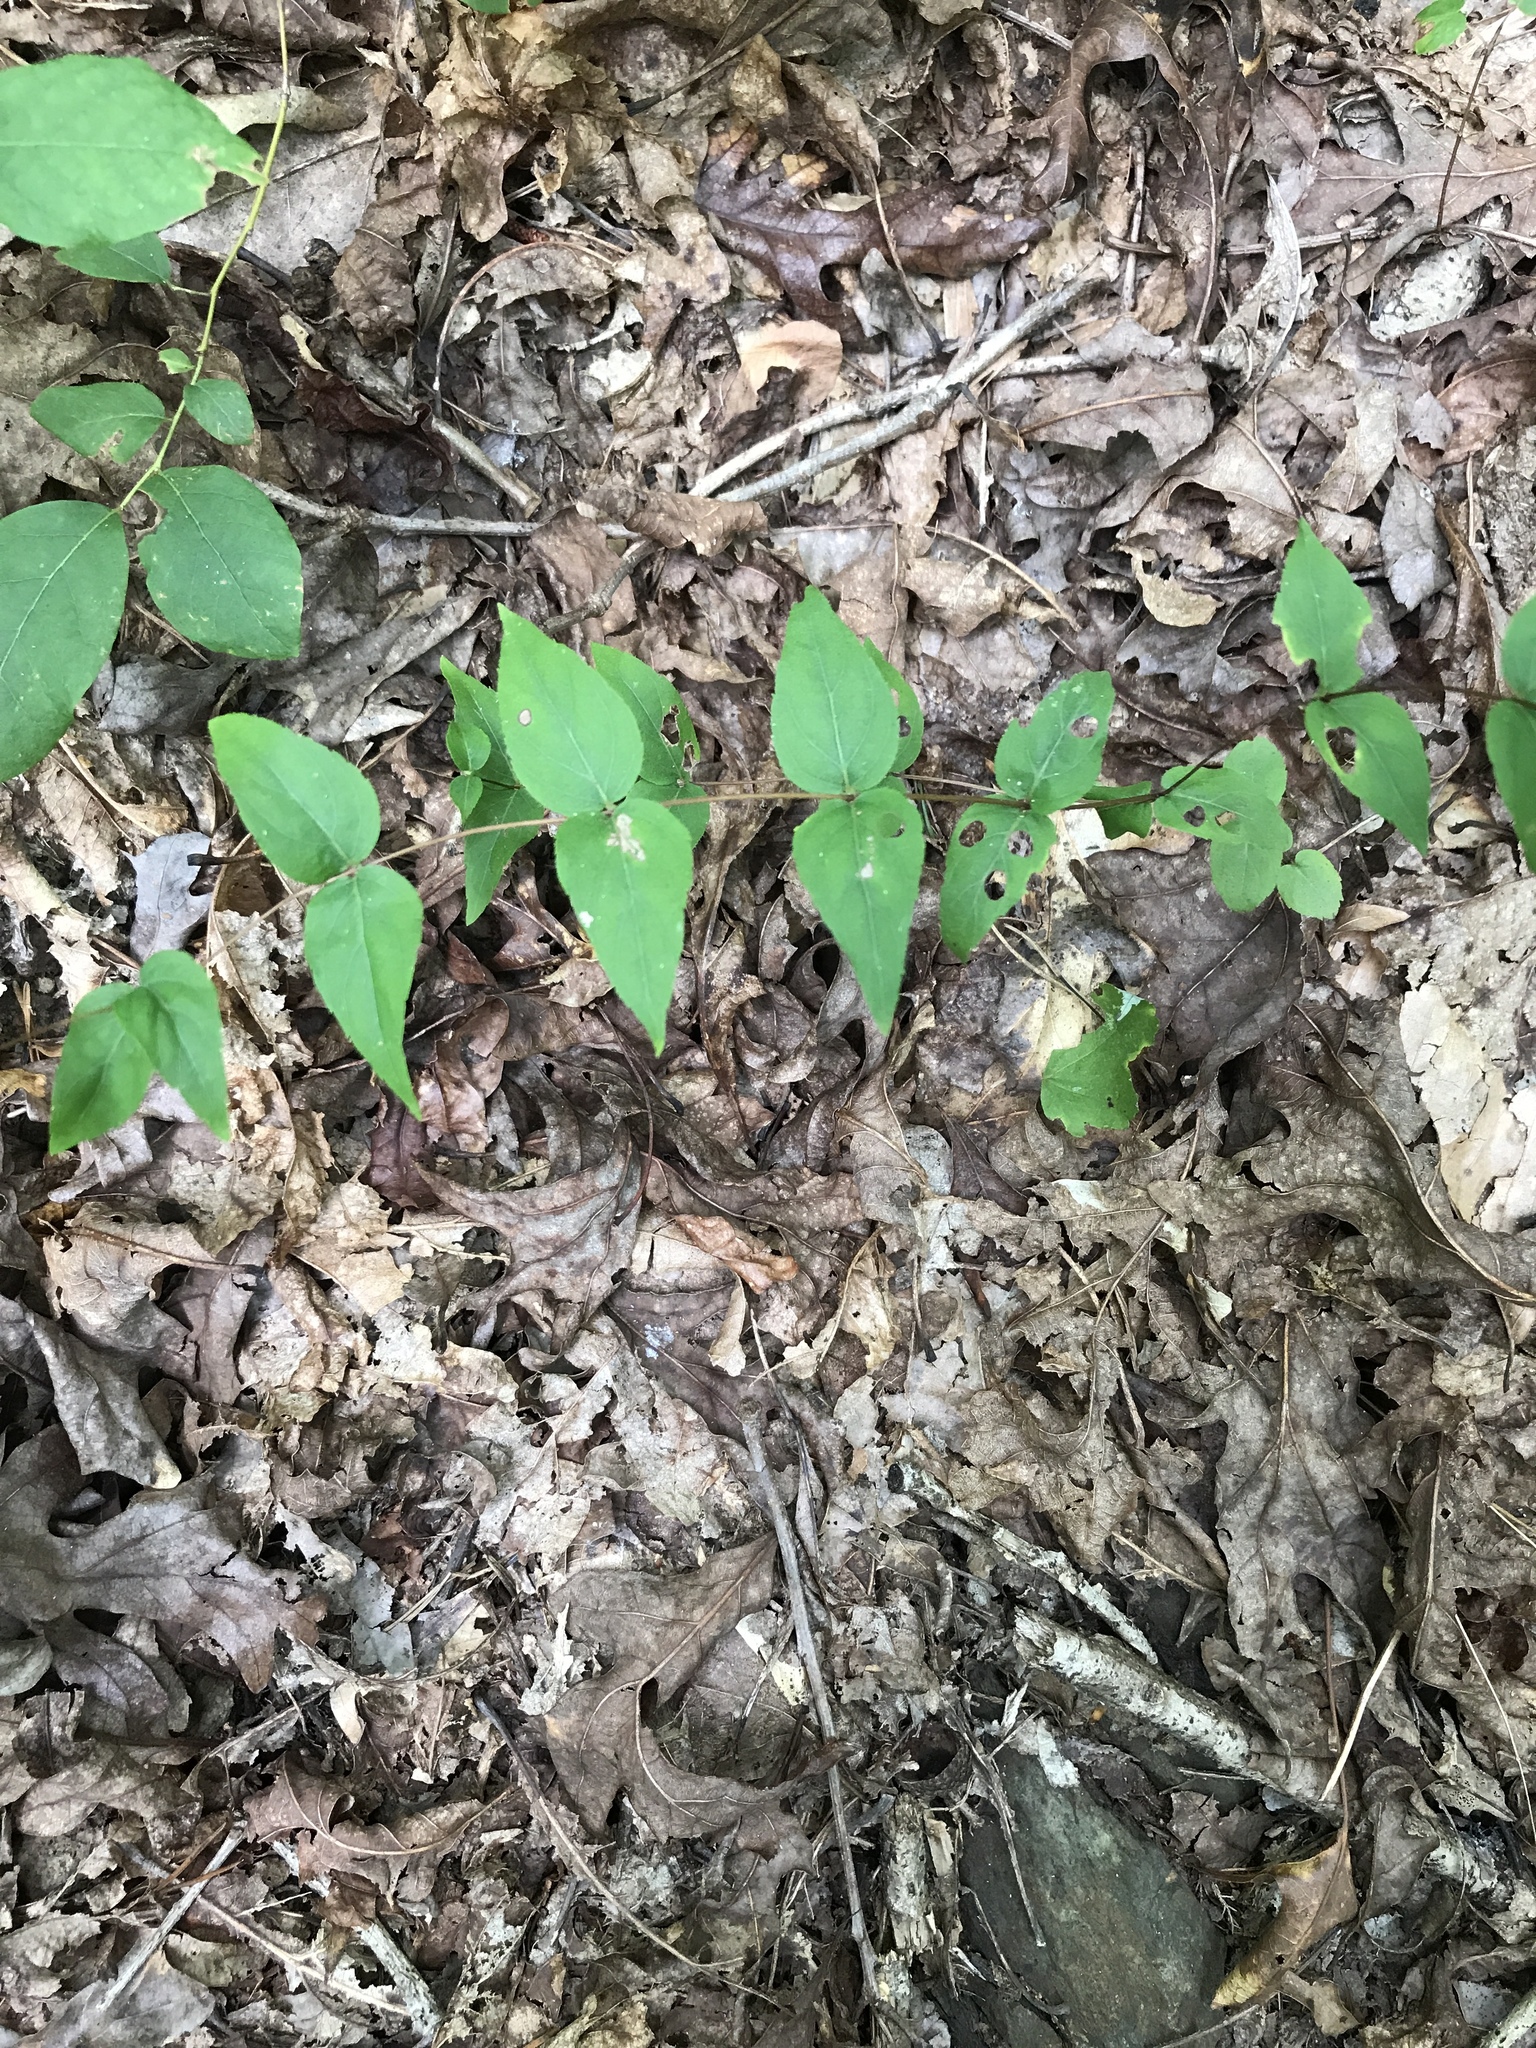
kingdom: Plantae
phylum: Tracheophyta
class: Magnoliopsida
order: Lamiales
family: Lamiaceae
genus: Cunila
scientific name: Cunila origanoides
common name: American dittany
